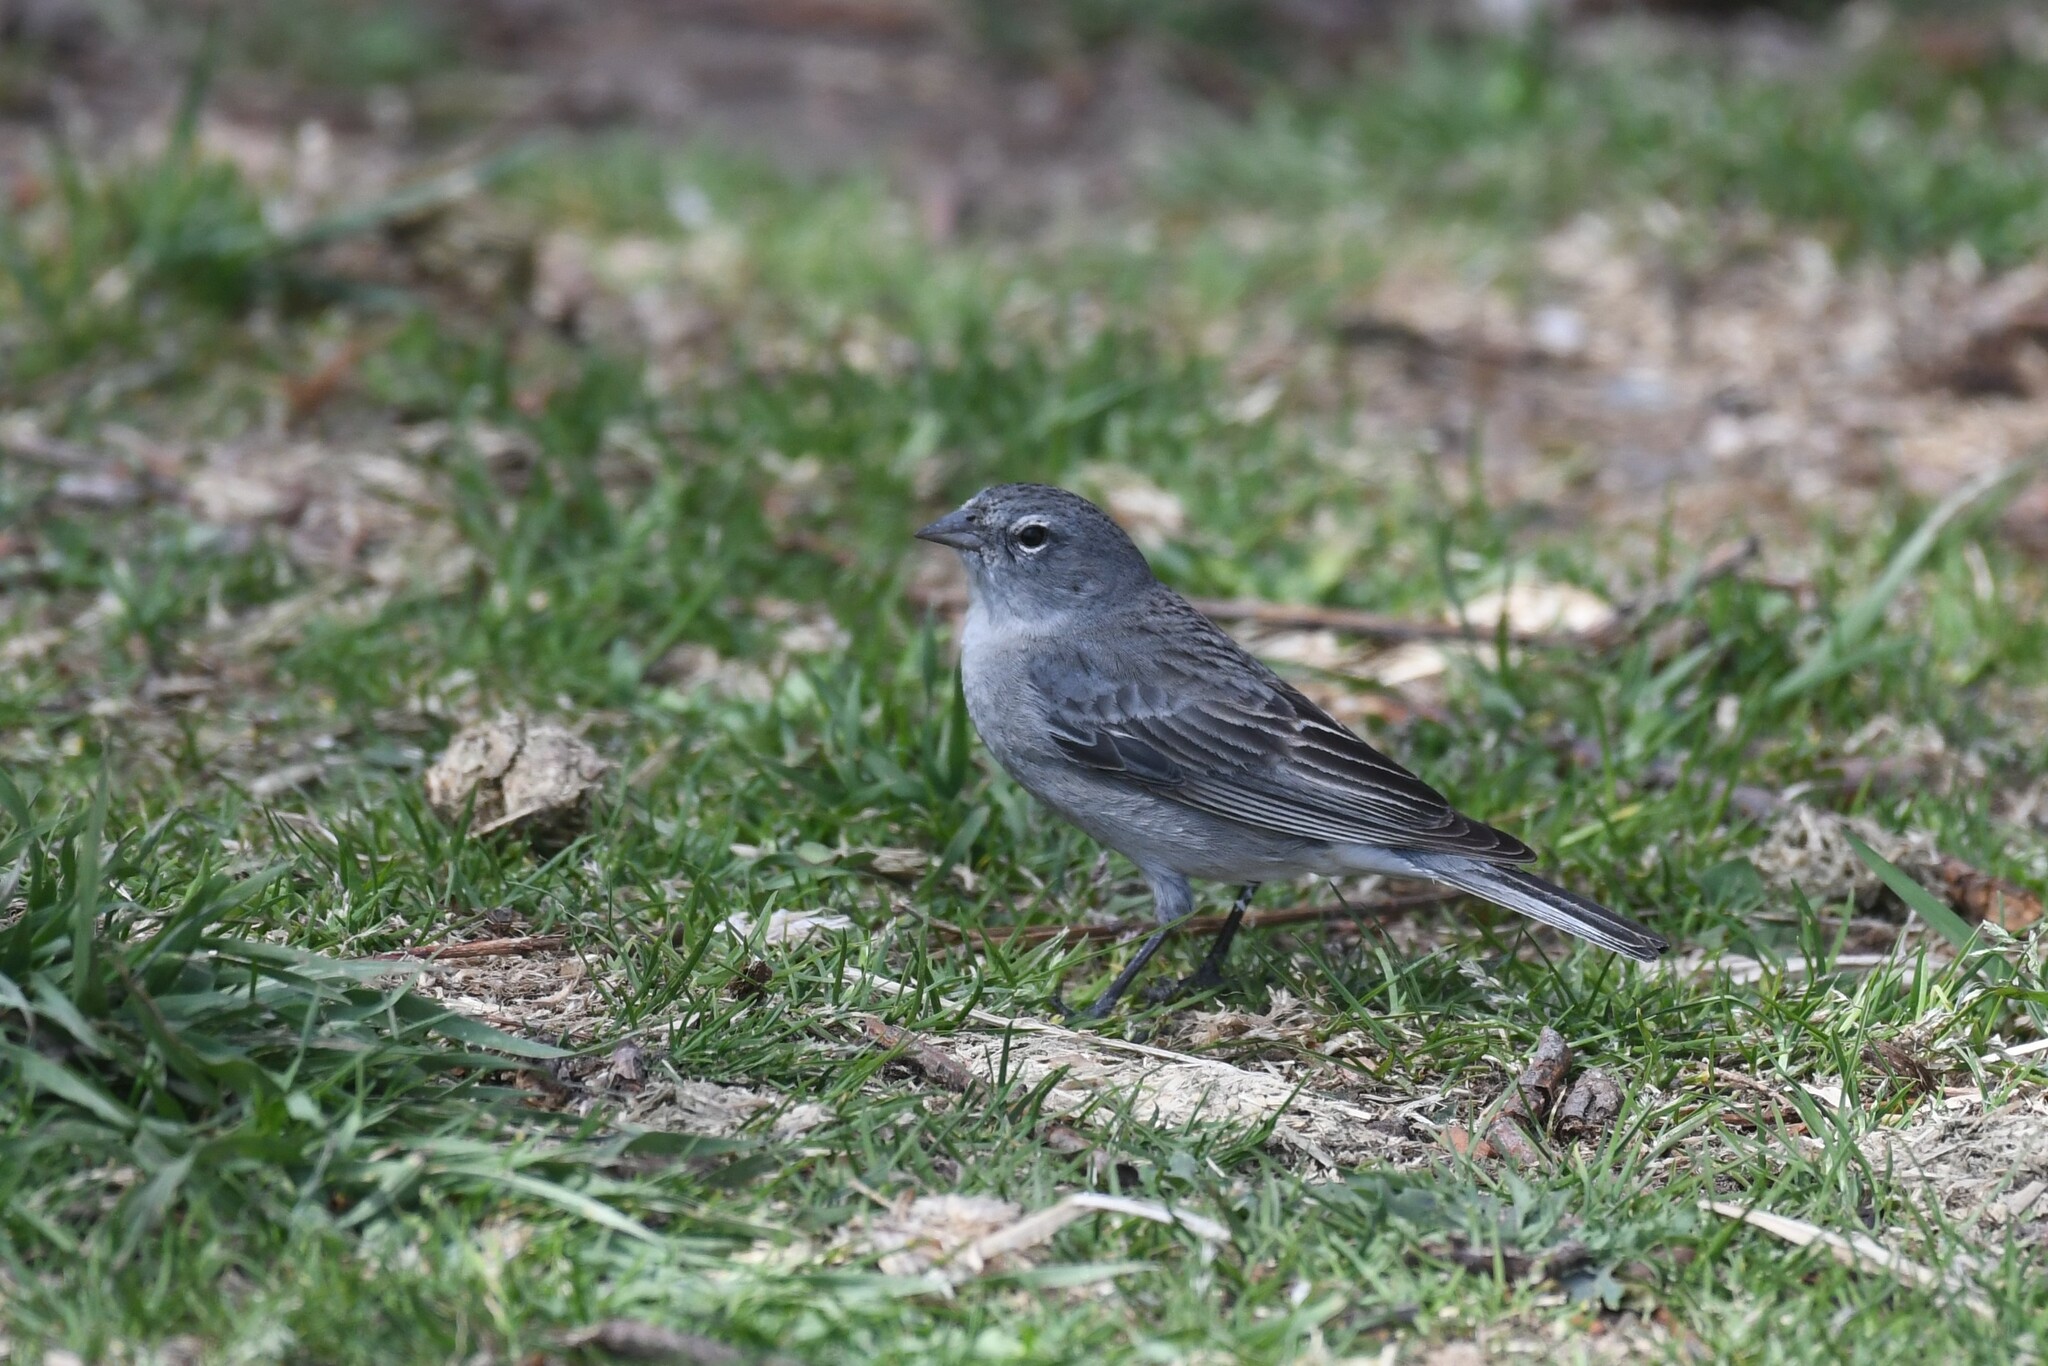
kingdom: Animalia
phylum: Chordata
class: Aves
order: Passeriformes
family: Thraupidae
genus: Geospizopsis
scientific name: Geospizopsis plebejus
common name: Ash-breasted sierra-finch
